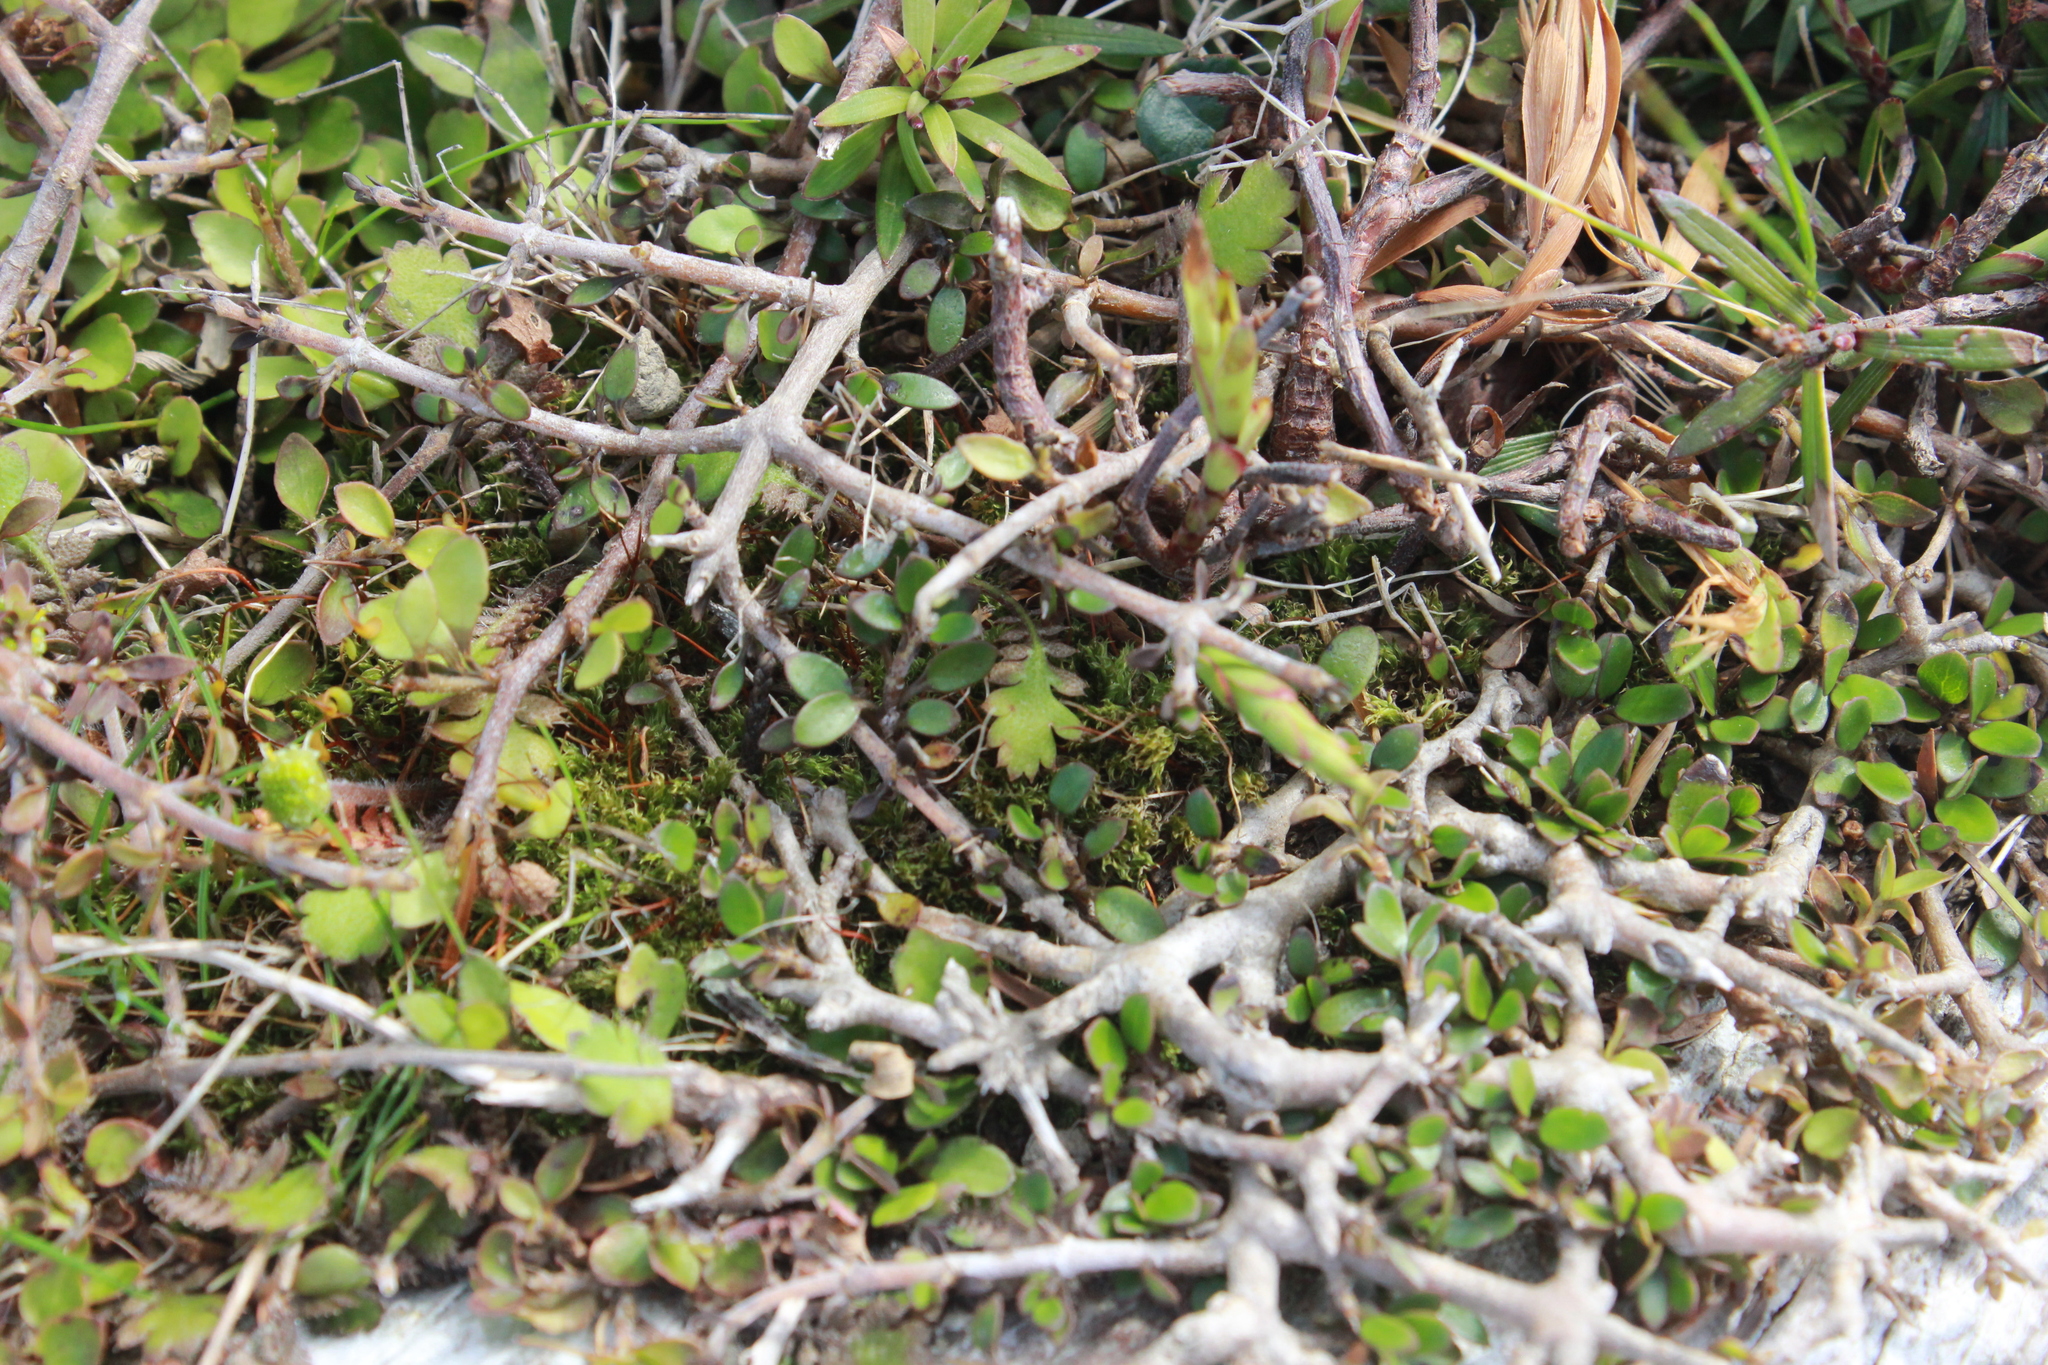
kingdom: Plantae
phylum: Tracheophyta
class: Magnoliopsida
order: Gentianales
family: Rubiaceae
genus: Coprosma
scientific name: Coprosma rhamnoides
